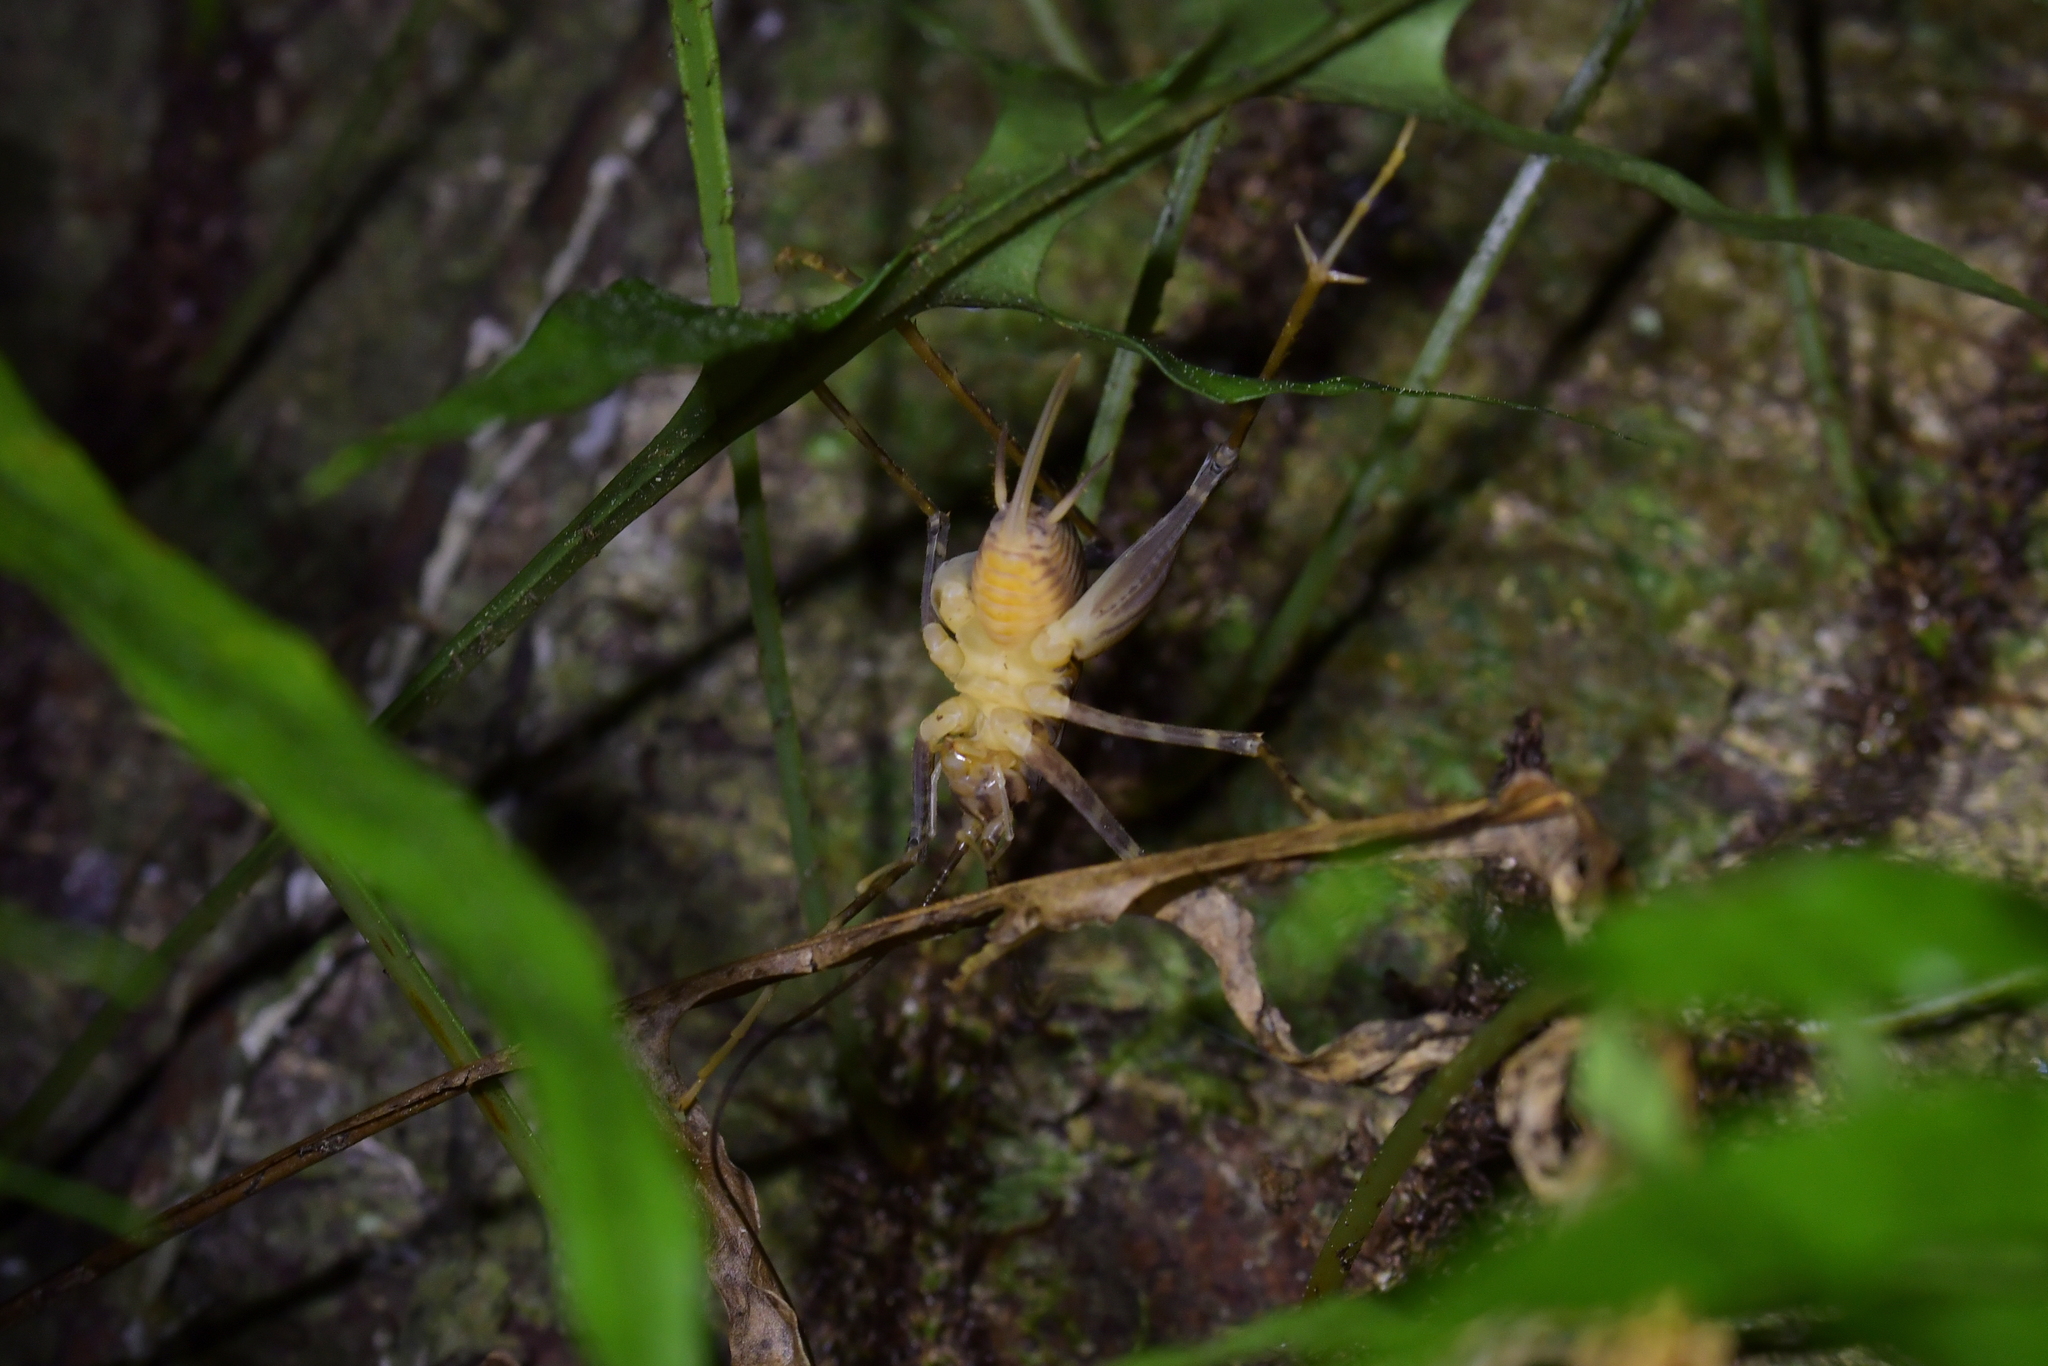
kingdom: Animalia
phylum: Arthropoda
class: Insecta
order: Orthoptera
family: Rhaphidophoridae
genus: Pachyrhamma
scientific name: Pachyrhamma edwardsii
